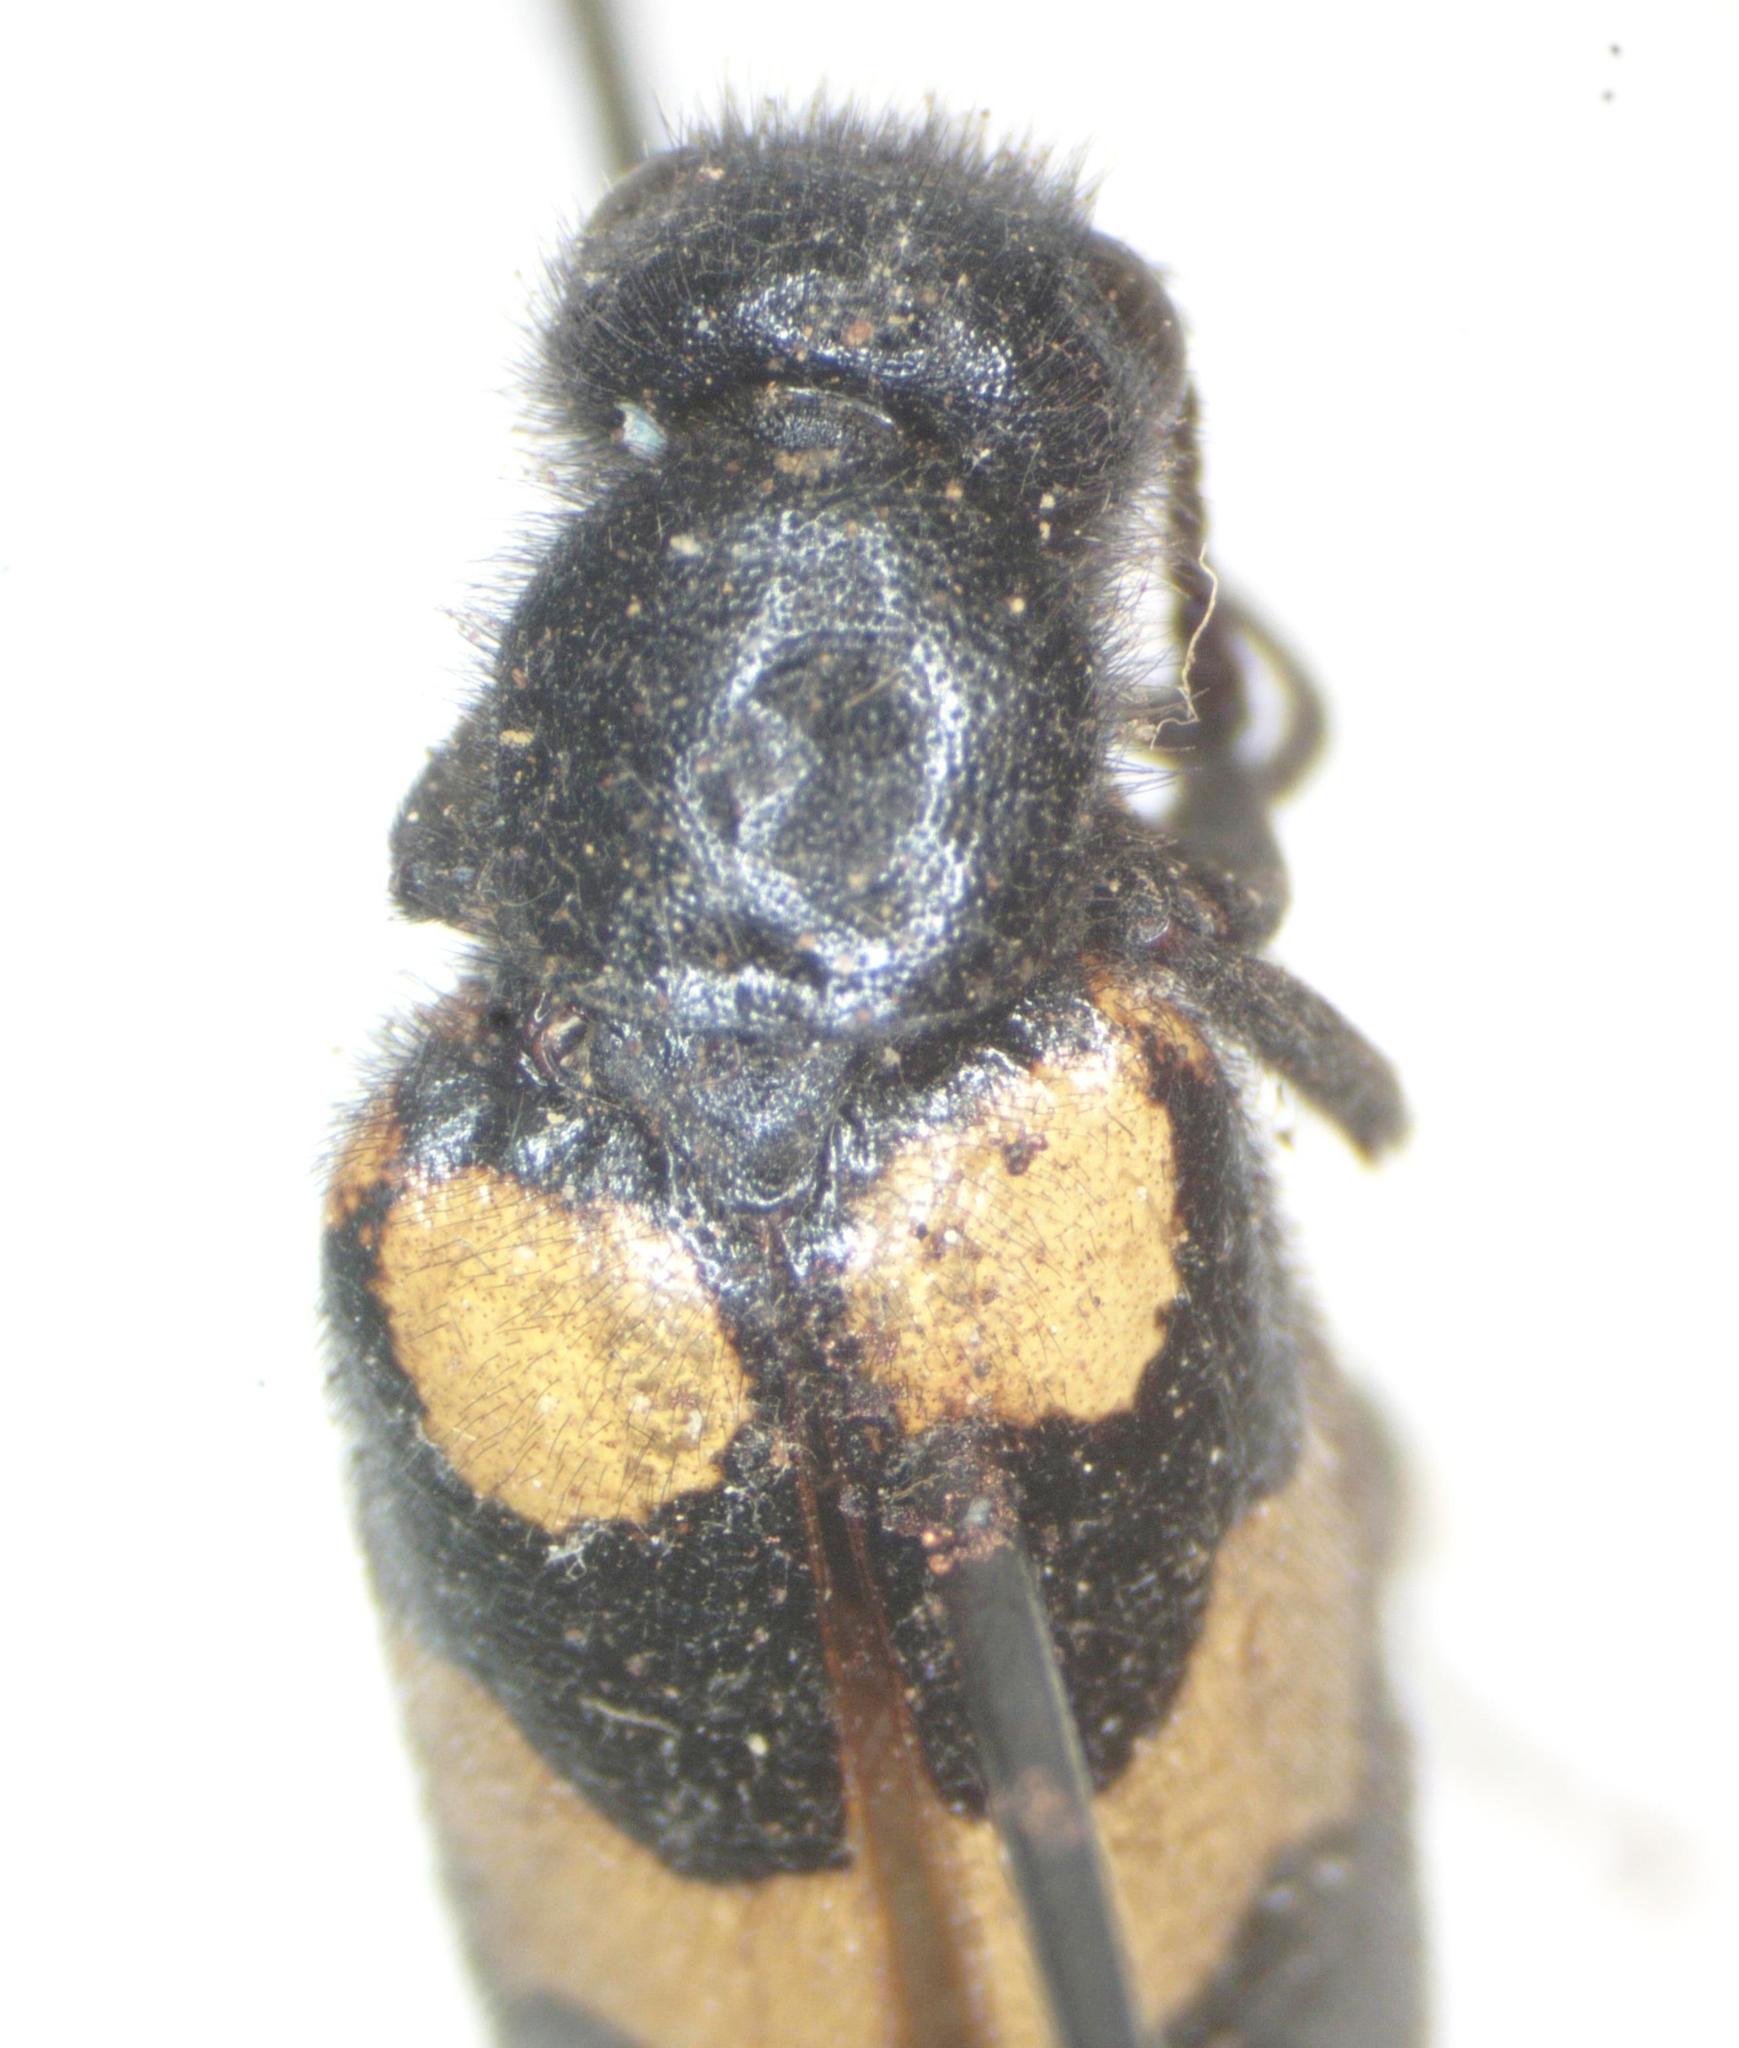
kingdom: Animalia
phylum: Arthropoda
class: Insecta
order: Coleoptera
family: Meloidae
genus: Mylabris
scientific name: Mylabris variabilis
